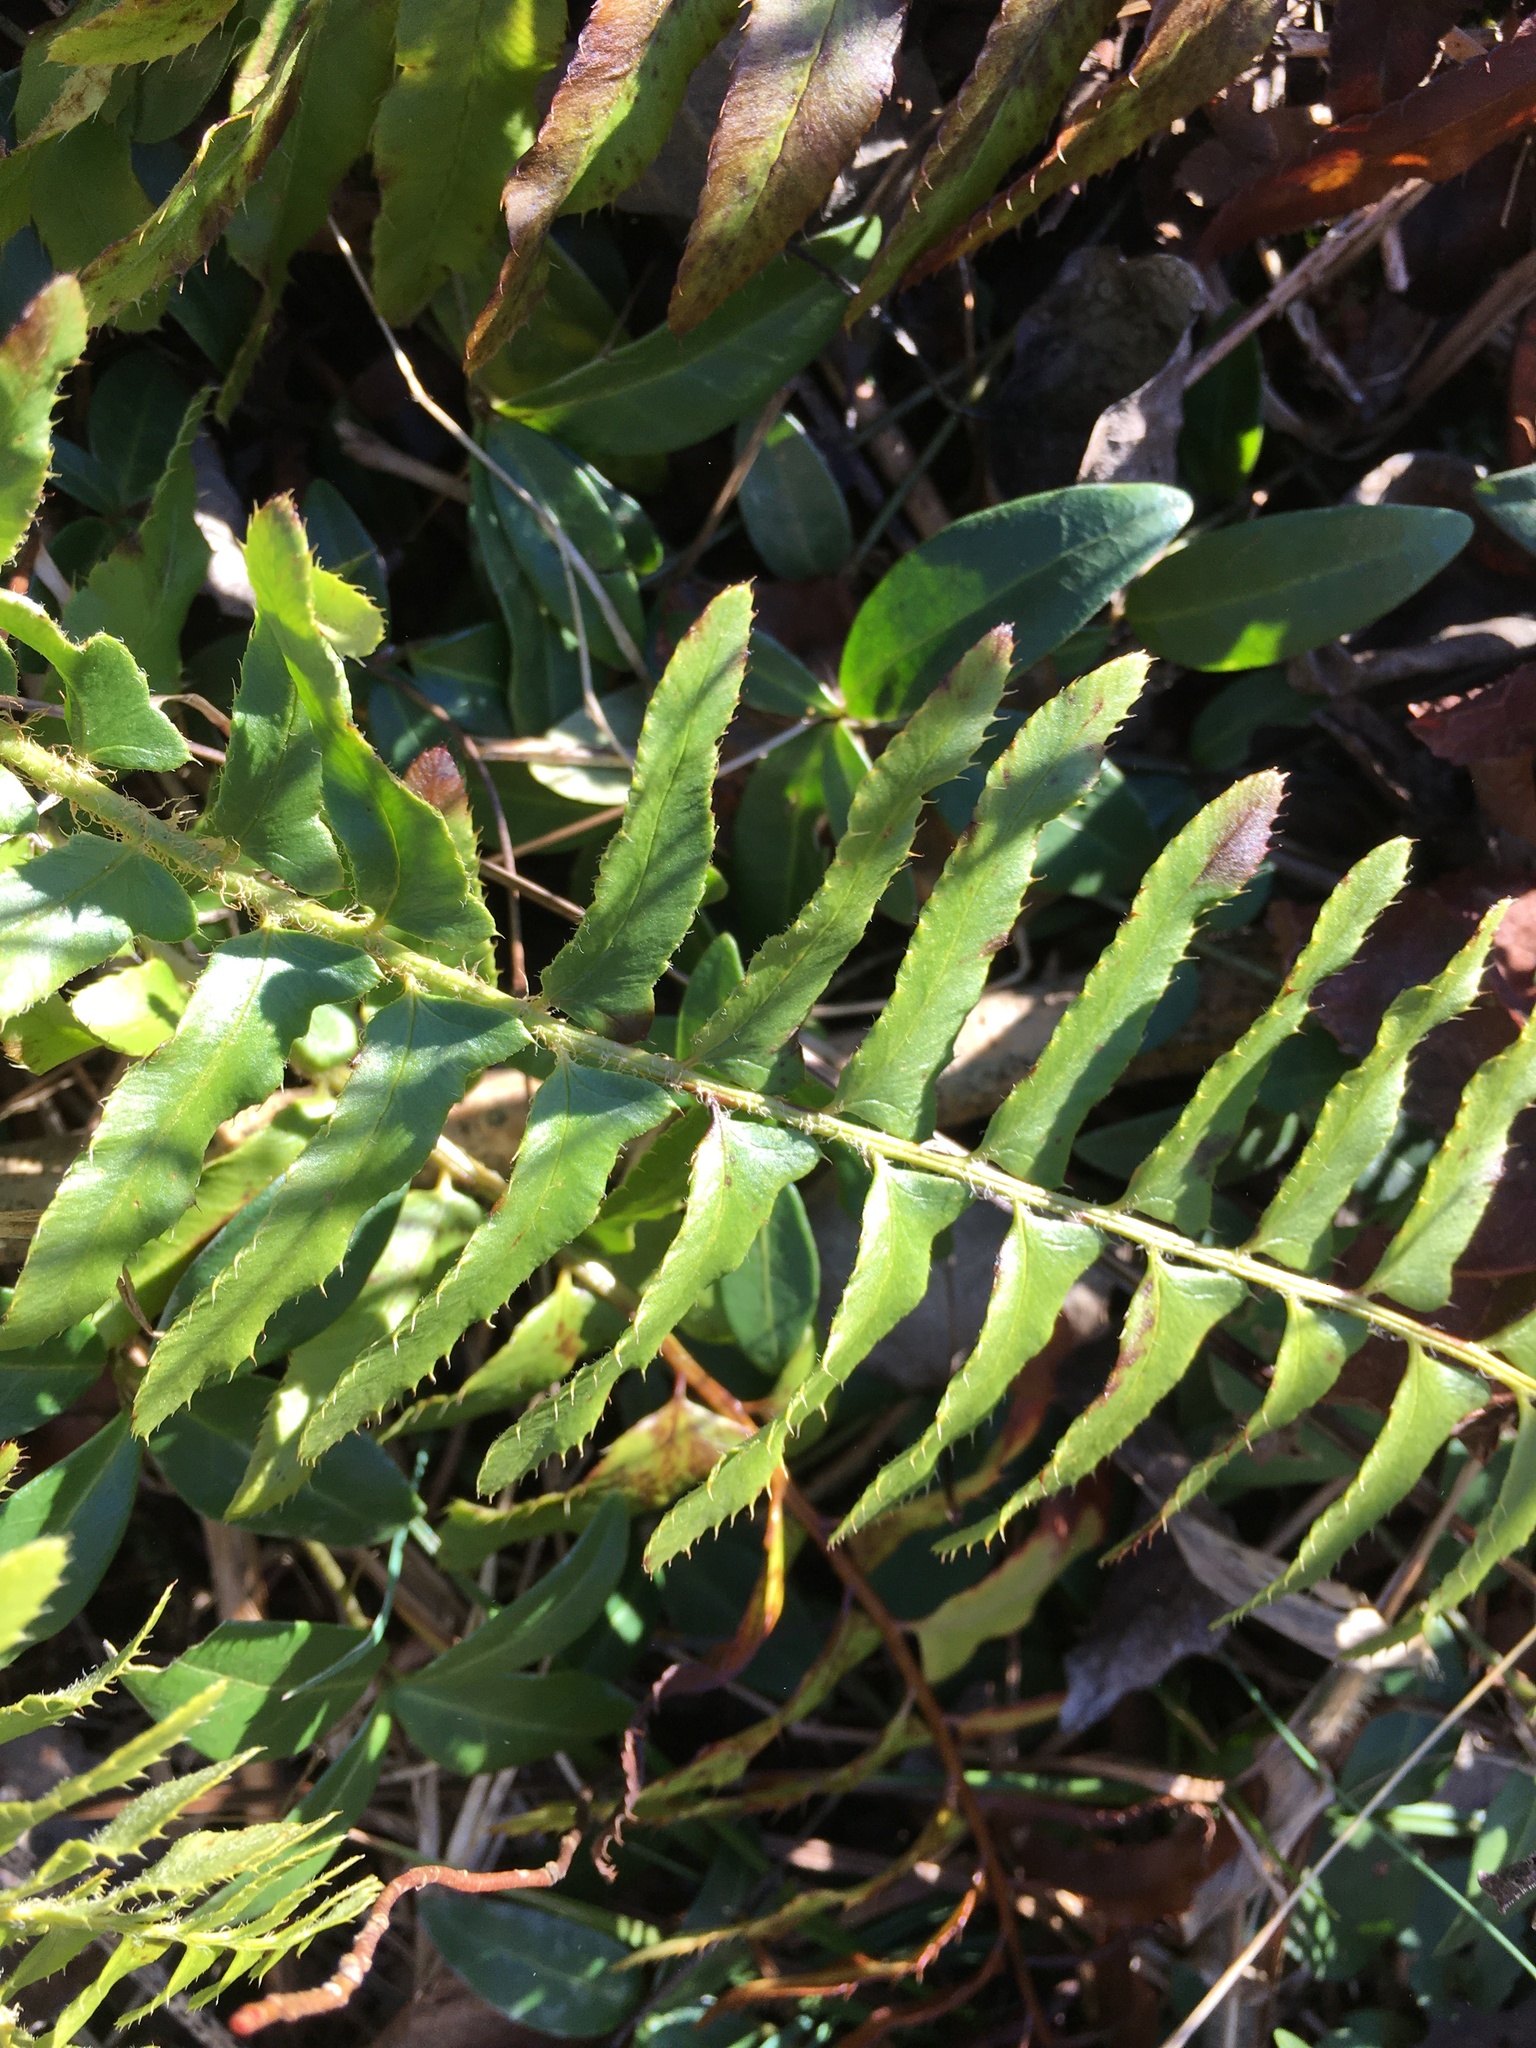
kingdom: Plantae
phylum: Tracheophyta
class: Polypodiopsida
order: Polypodiales
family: Dryopteridaceae
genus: Polystichum
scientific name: Polystichum acrostichoides
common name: Christmas fern
